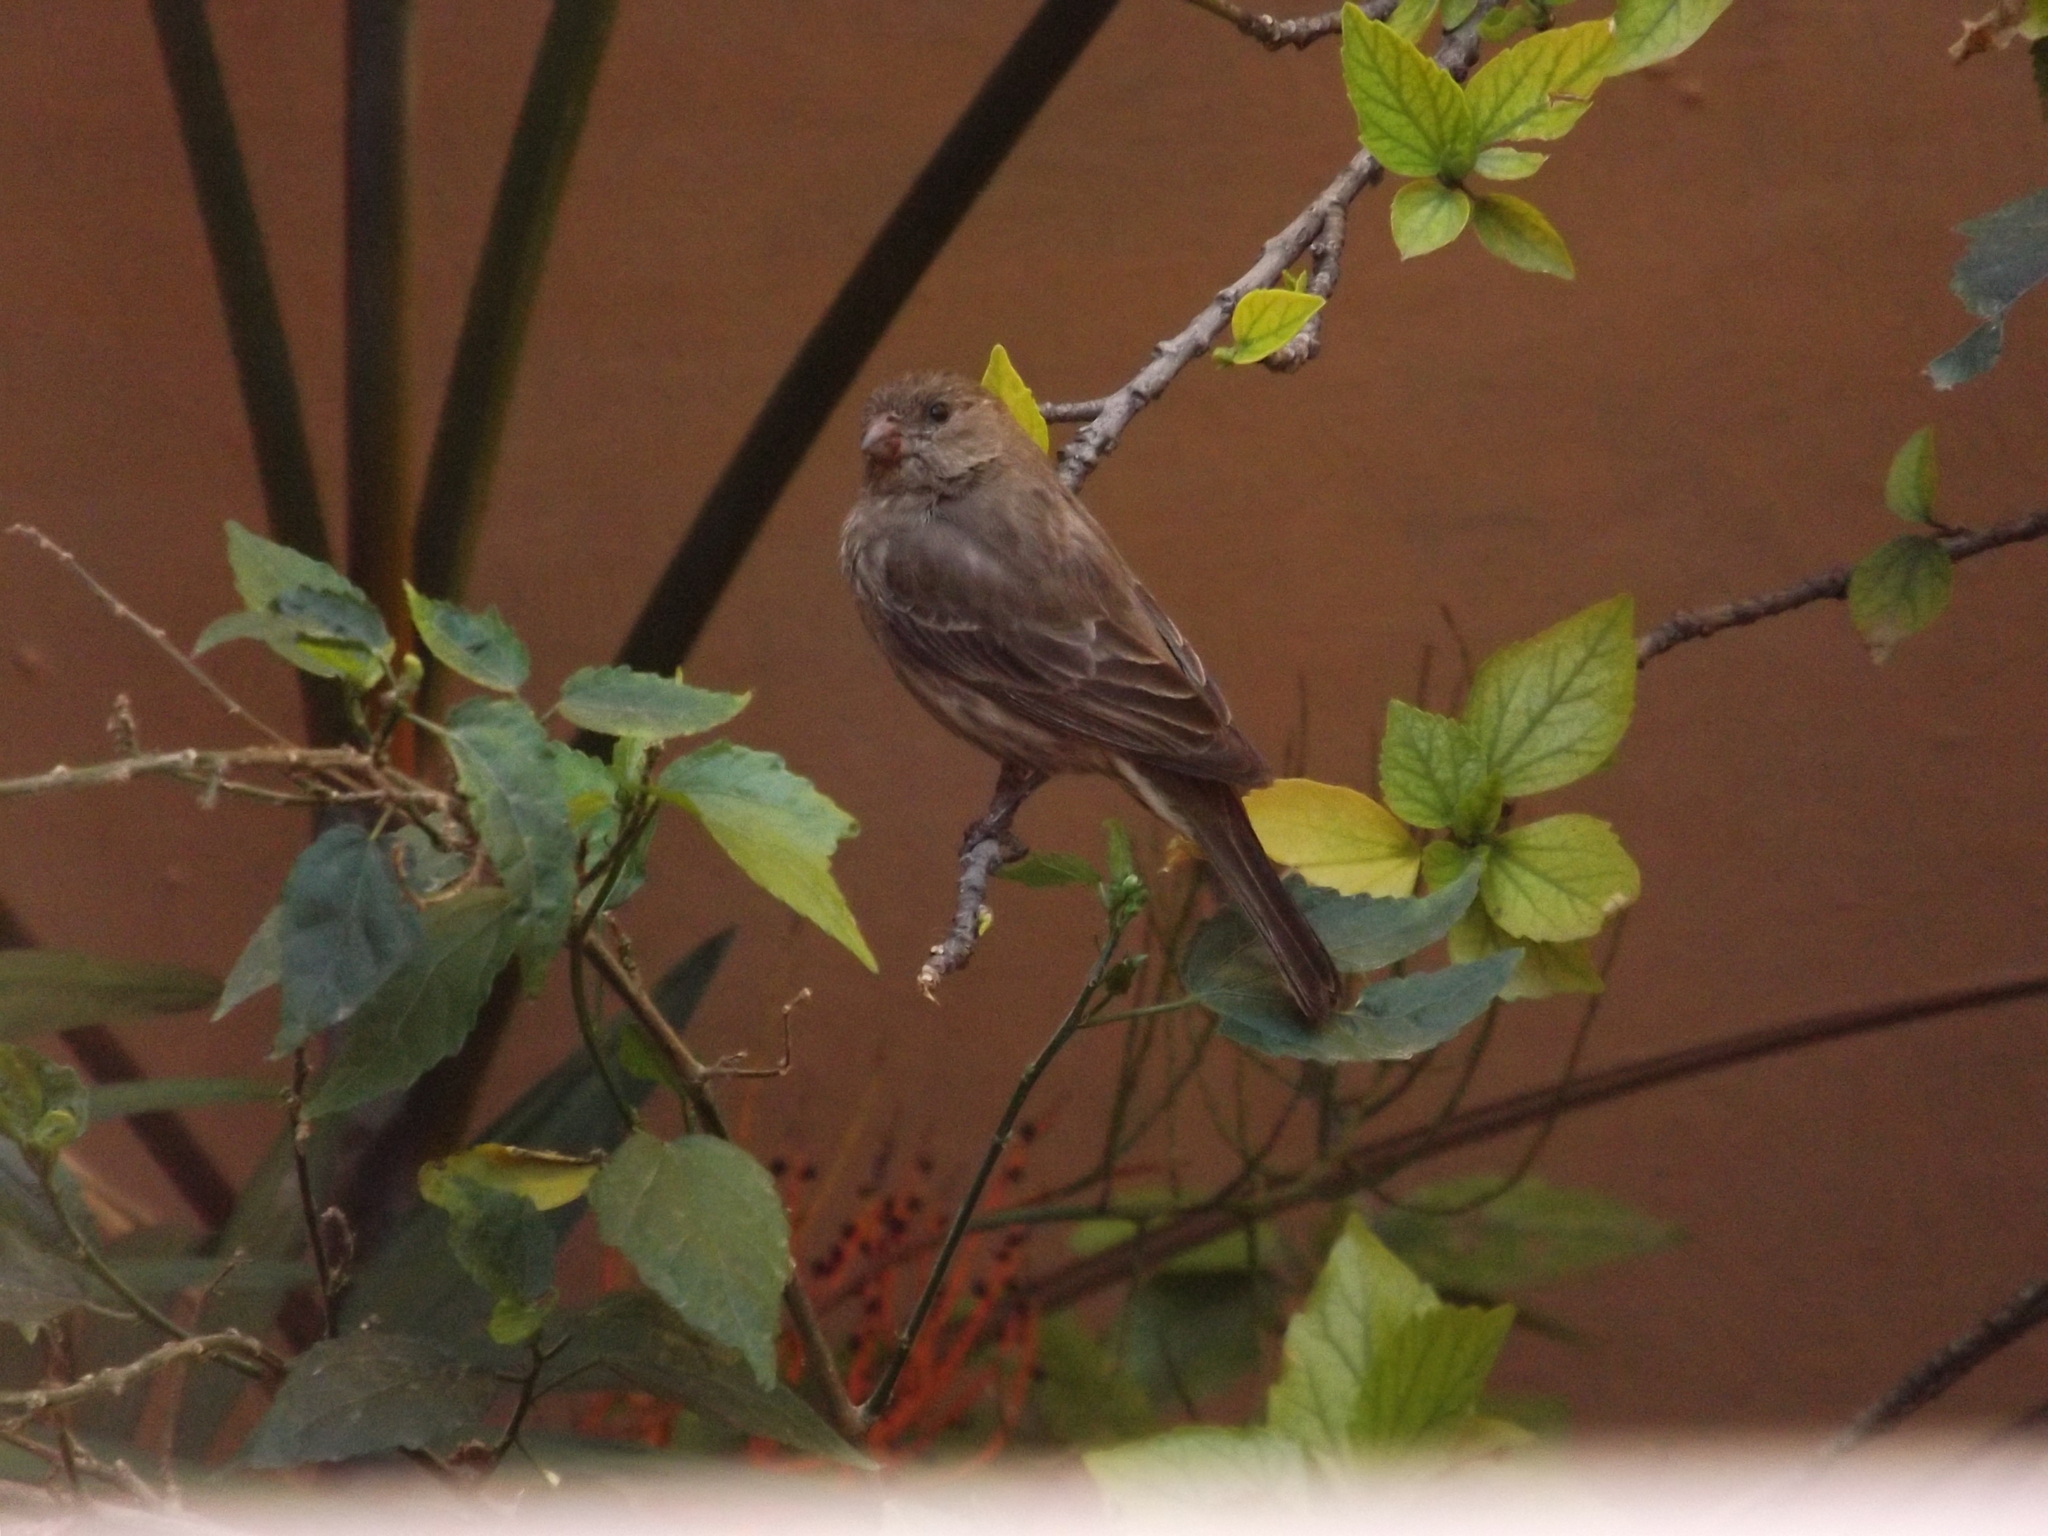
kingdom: Animalia
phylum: Chordata
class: Aves
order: Passeriformes
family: Fringillidae
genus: Haemorhous
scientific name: Haemorhous mexicanus
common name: House finch
